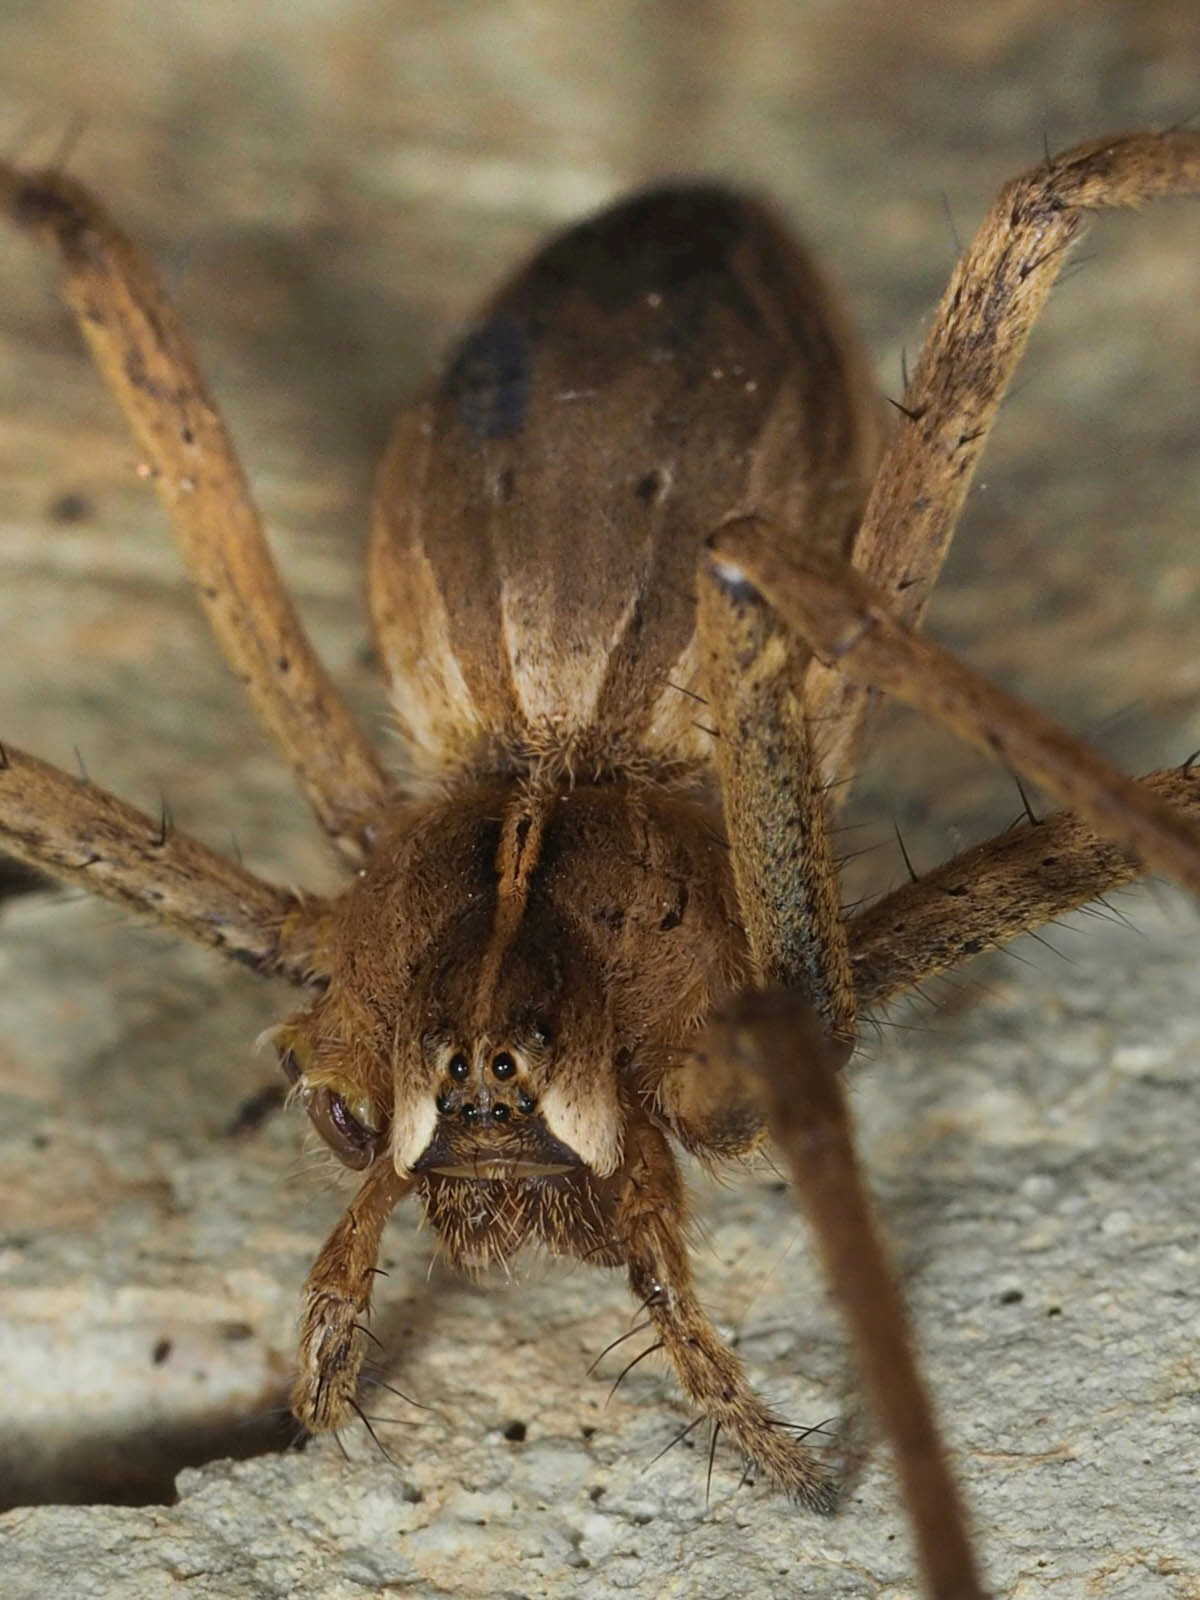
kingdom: Animalia
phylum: Arthropoda
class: Arachnida
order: Araneae
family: Pisauridae
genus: Pisaura
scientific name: Pisaura
